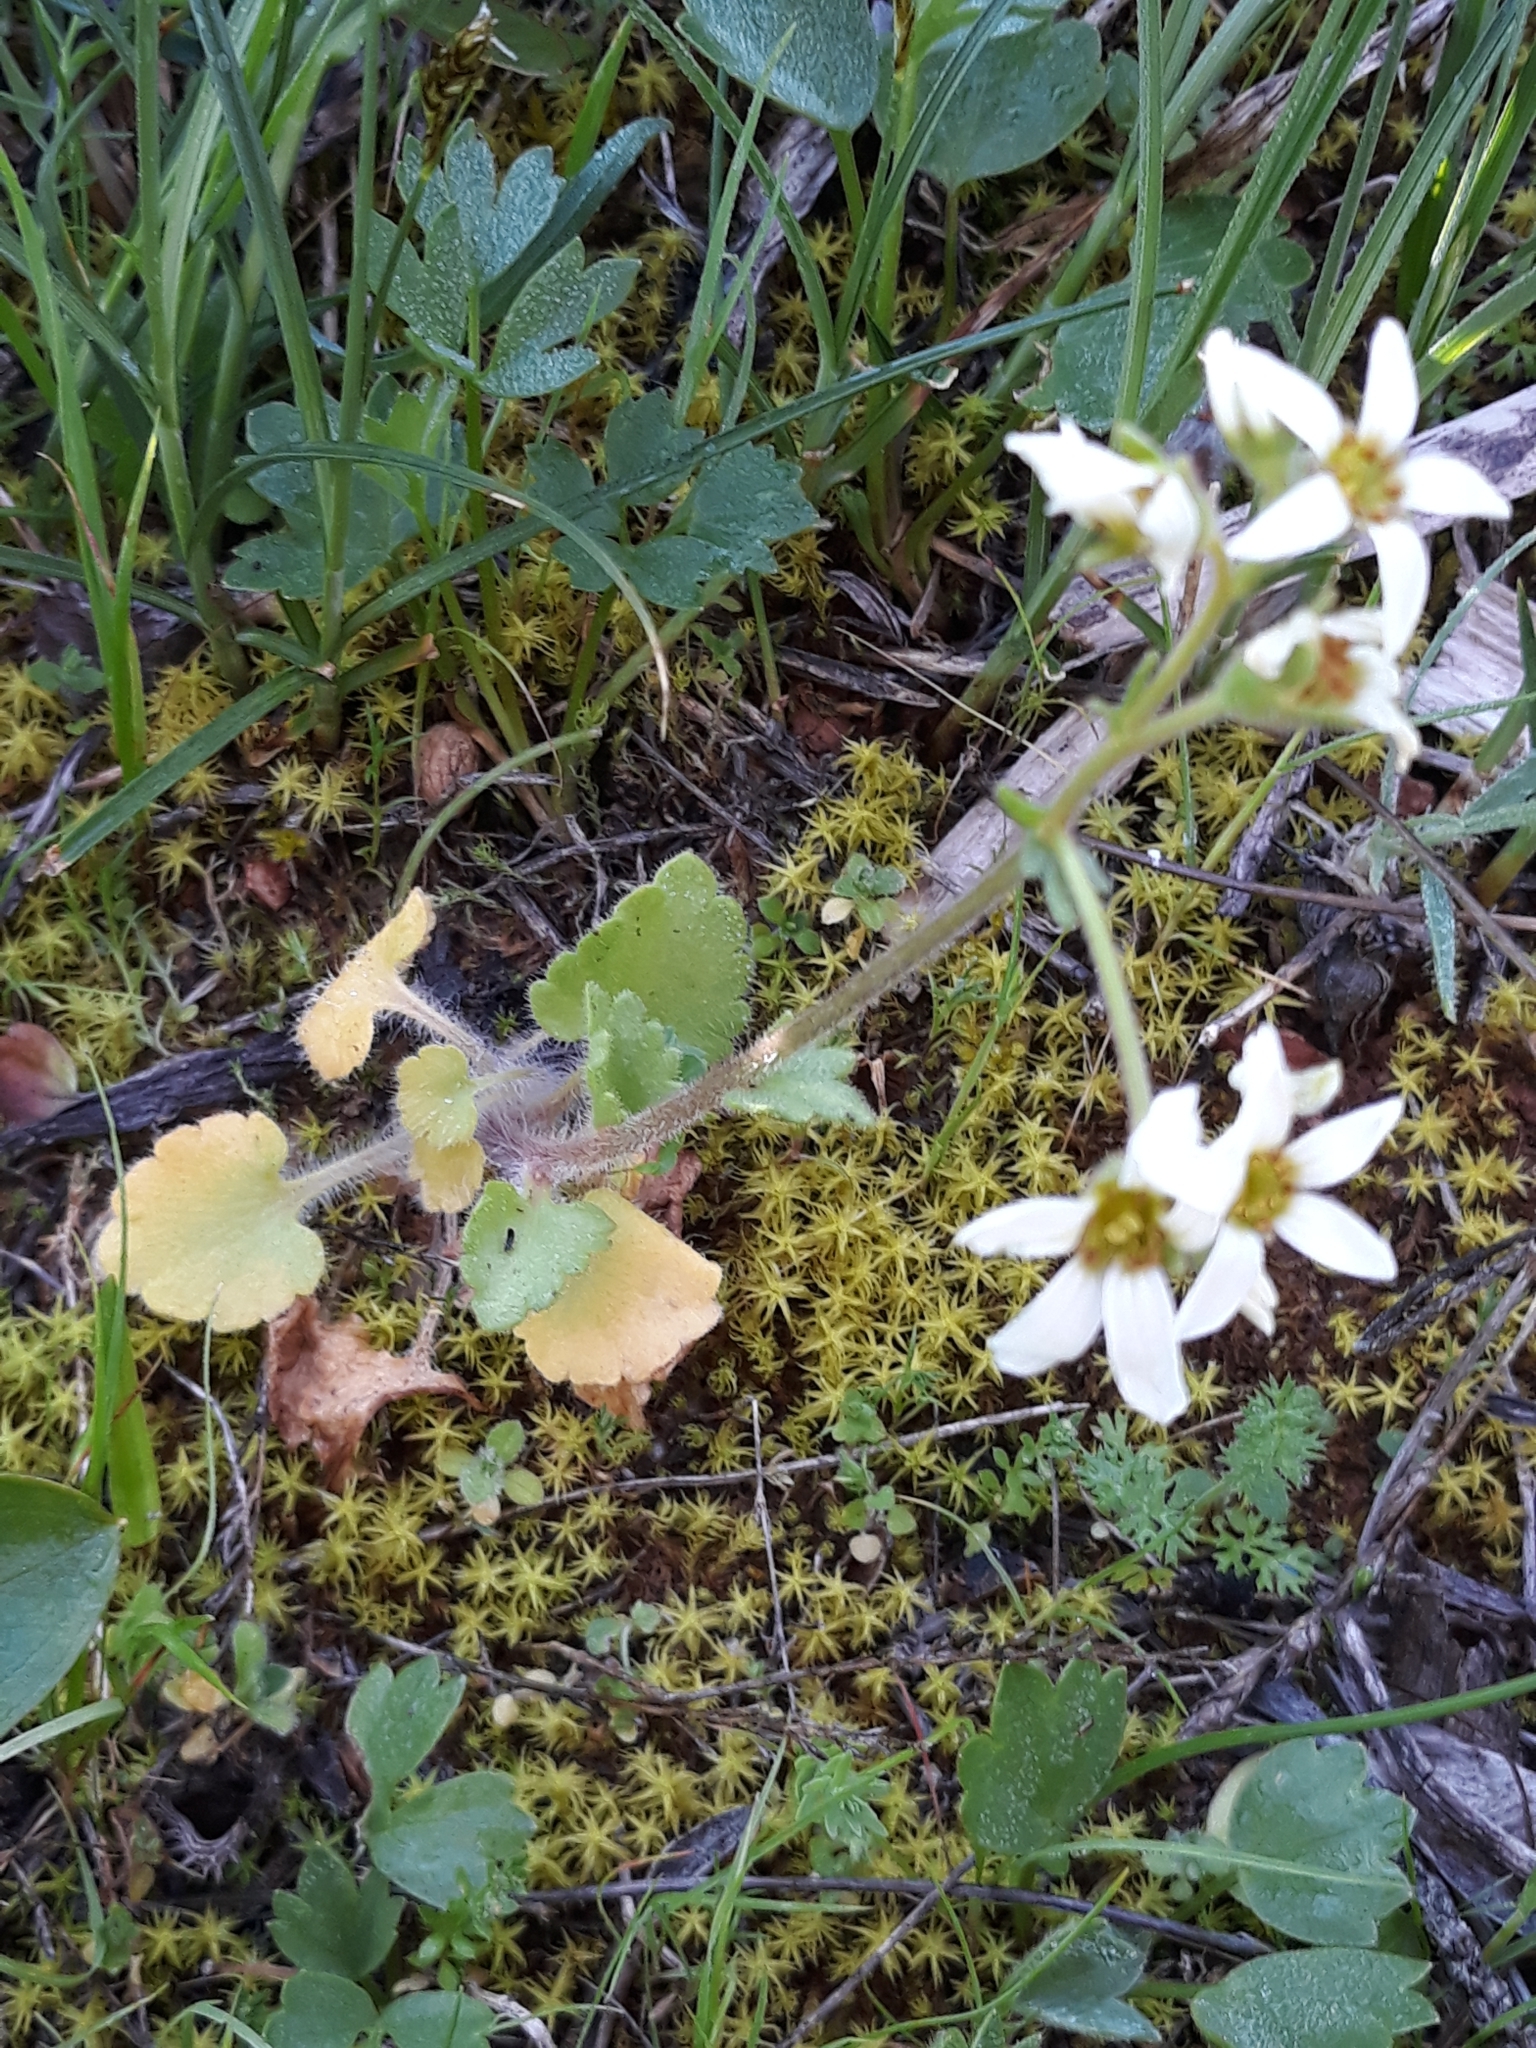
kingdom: Plantae
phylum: Tracheophyta
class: Magnoliopsida
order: Saxifragales
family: Saxifragaceae
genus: Saxifraga
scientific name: Saxifraga carpetana
